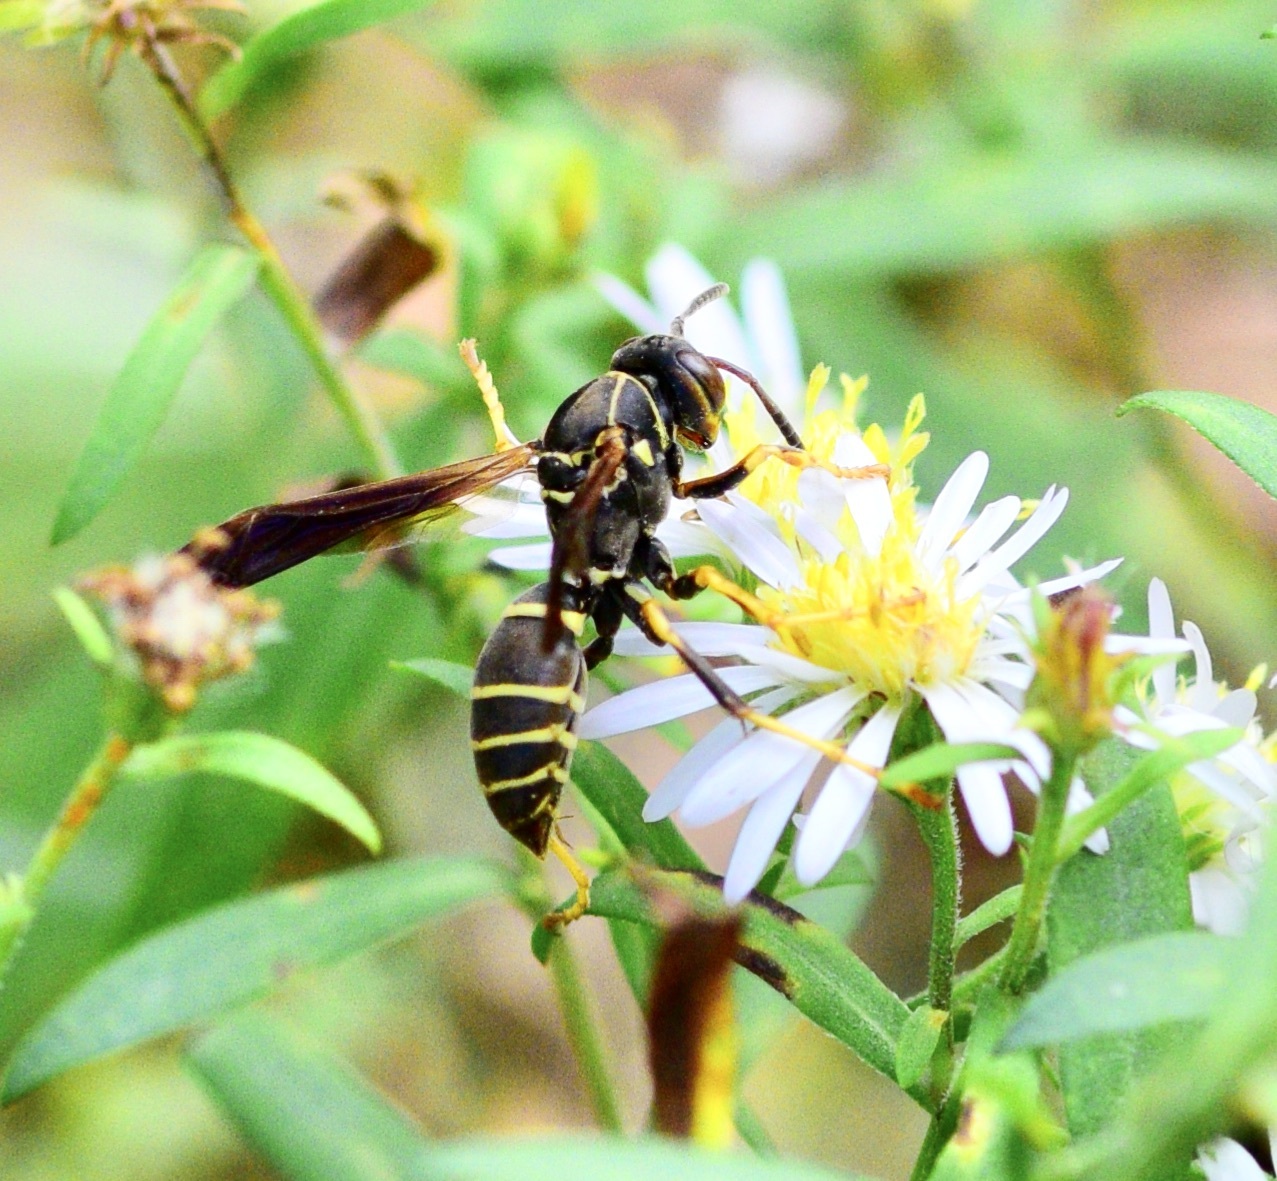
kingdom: Animalia
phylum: Arthropoda
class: Insecta
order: Hymenoptera
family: Eumenidae
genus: Polistes
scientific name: Polistes fuscatus
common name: Dark paper wasp
